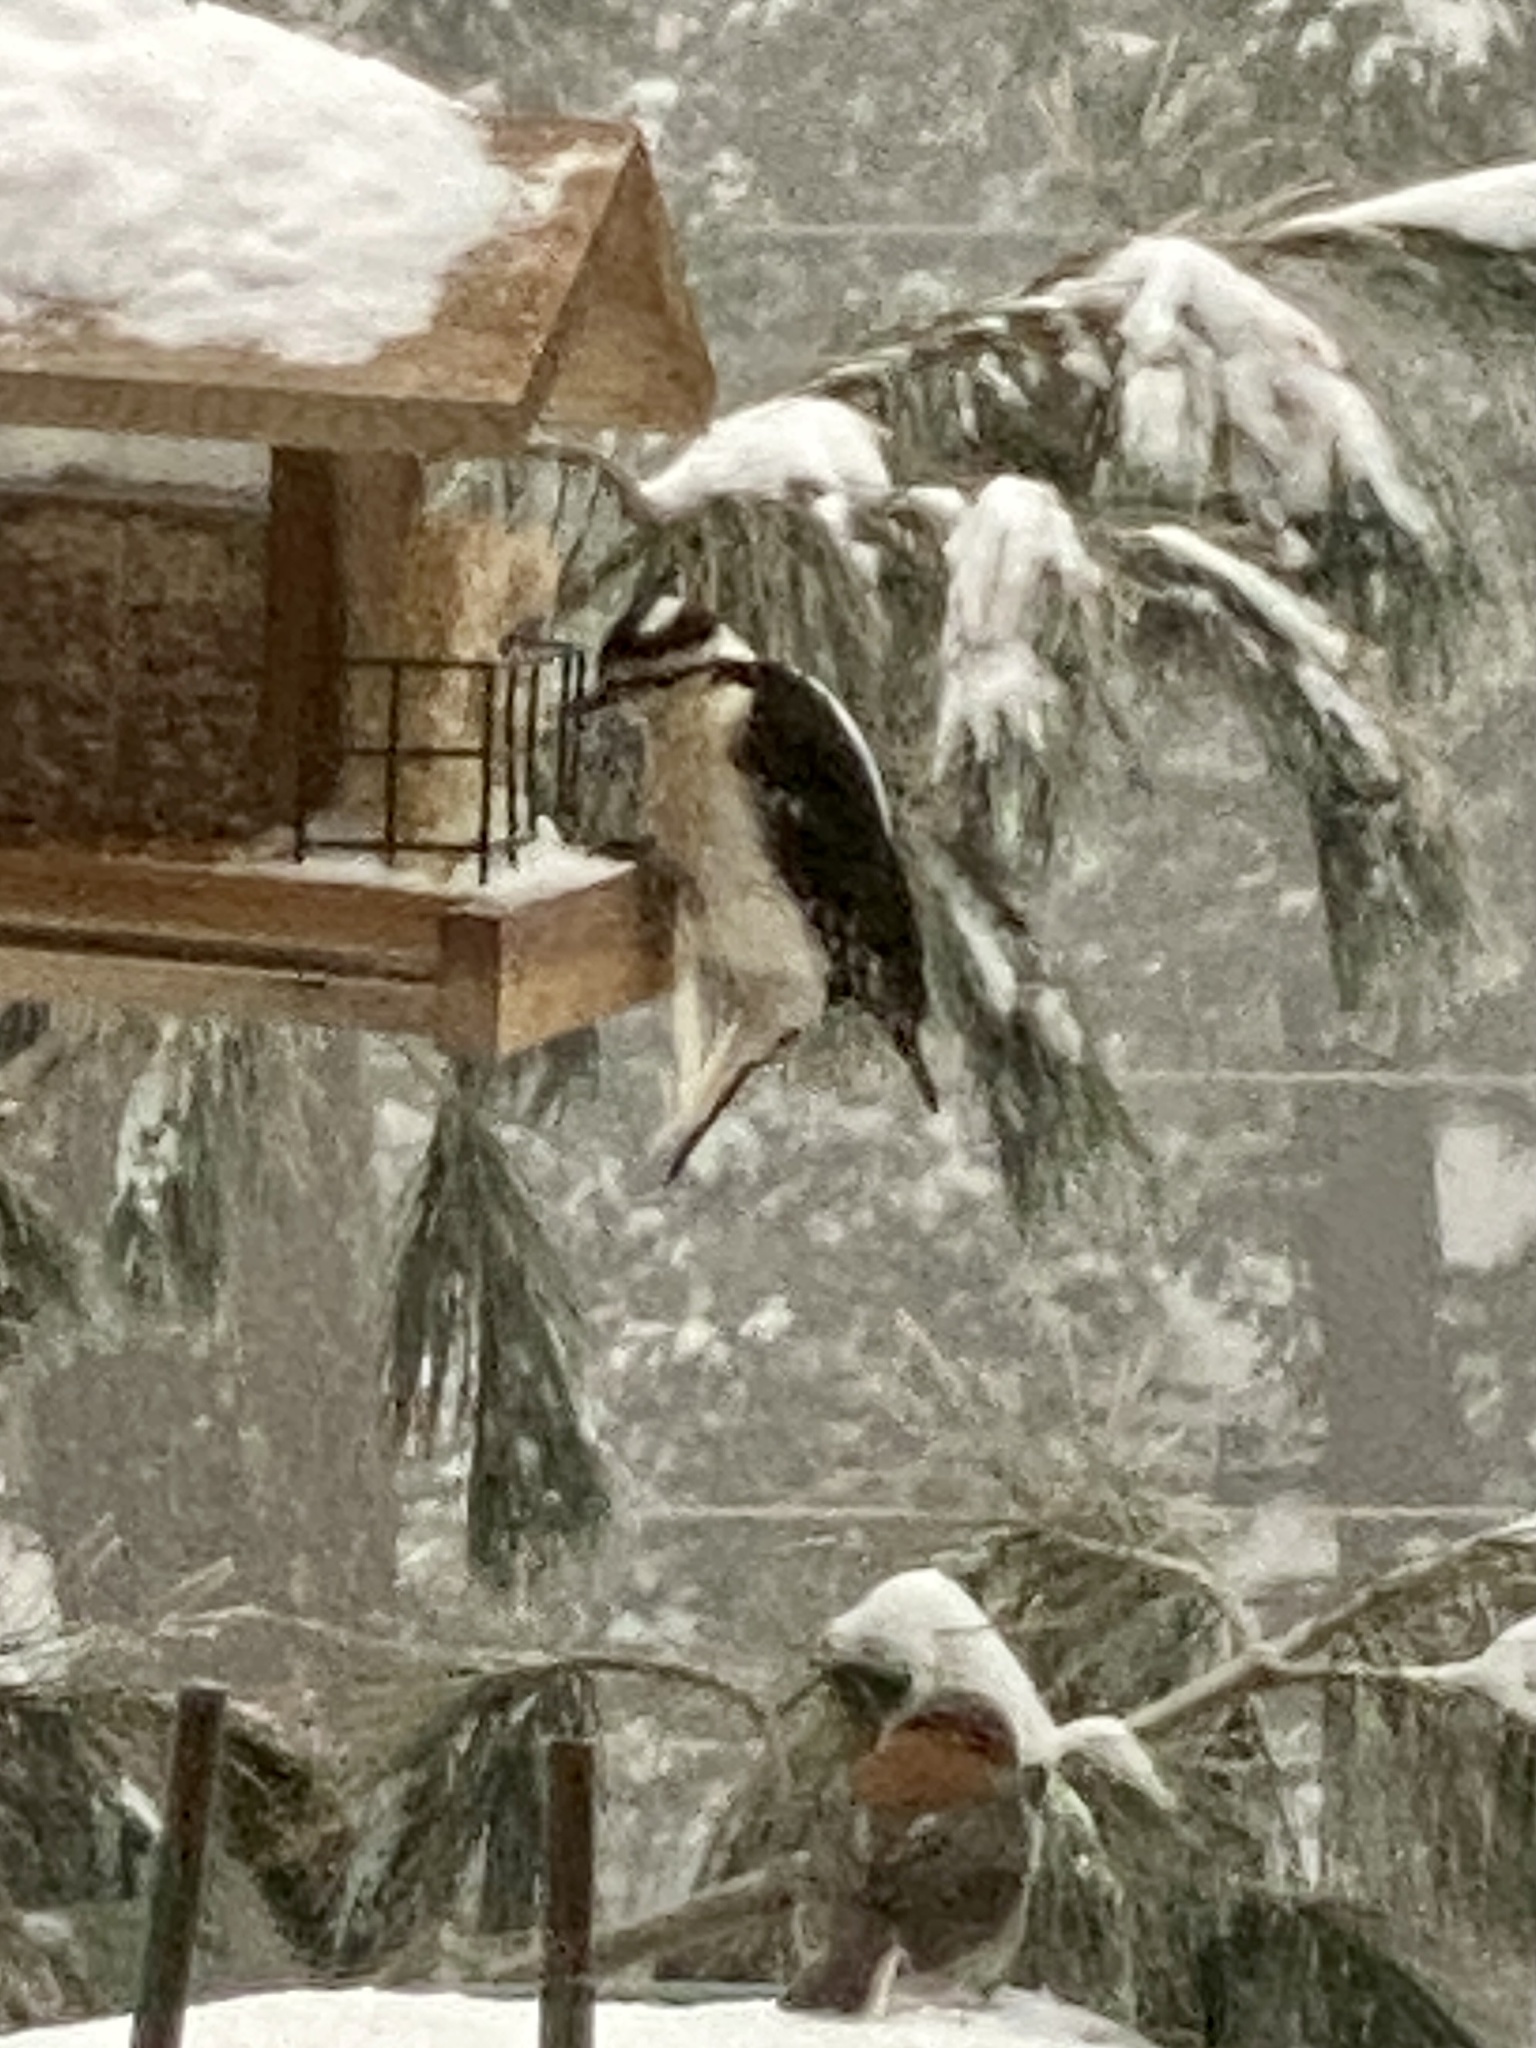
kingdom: Animalia
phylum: Chordata
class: Aves
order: Piciformes
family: Picidae
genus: Leuconotopicus
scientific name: Leuconotopicus villosus
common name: Hairy woodpecker
